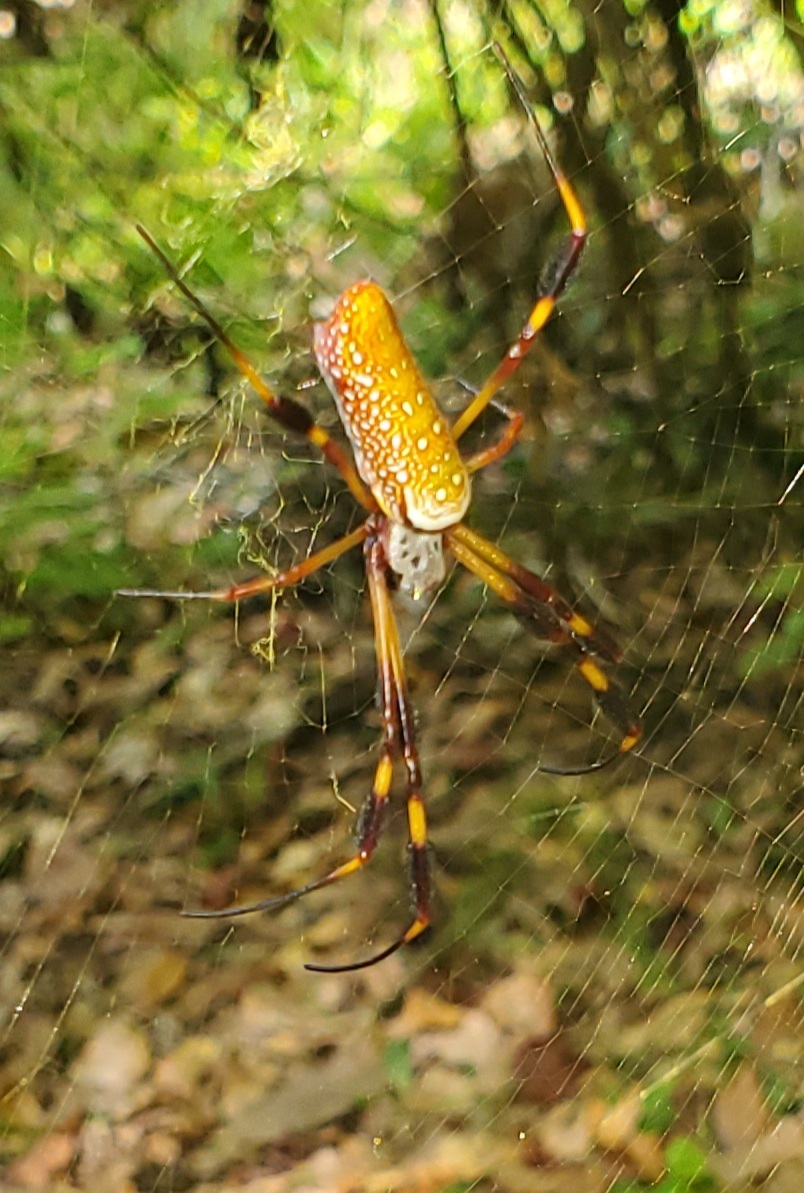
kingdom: Animalia
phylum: Arthropoda
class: Arachnida
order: Araneae
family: Araneidae
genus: Trichonephila
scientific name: Trichonephila clavipes
